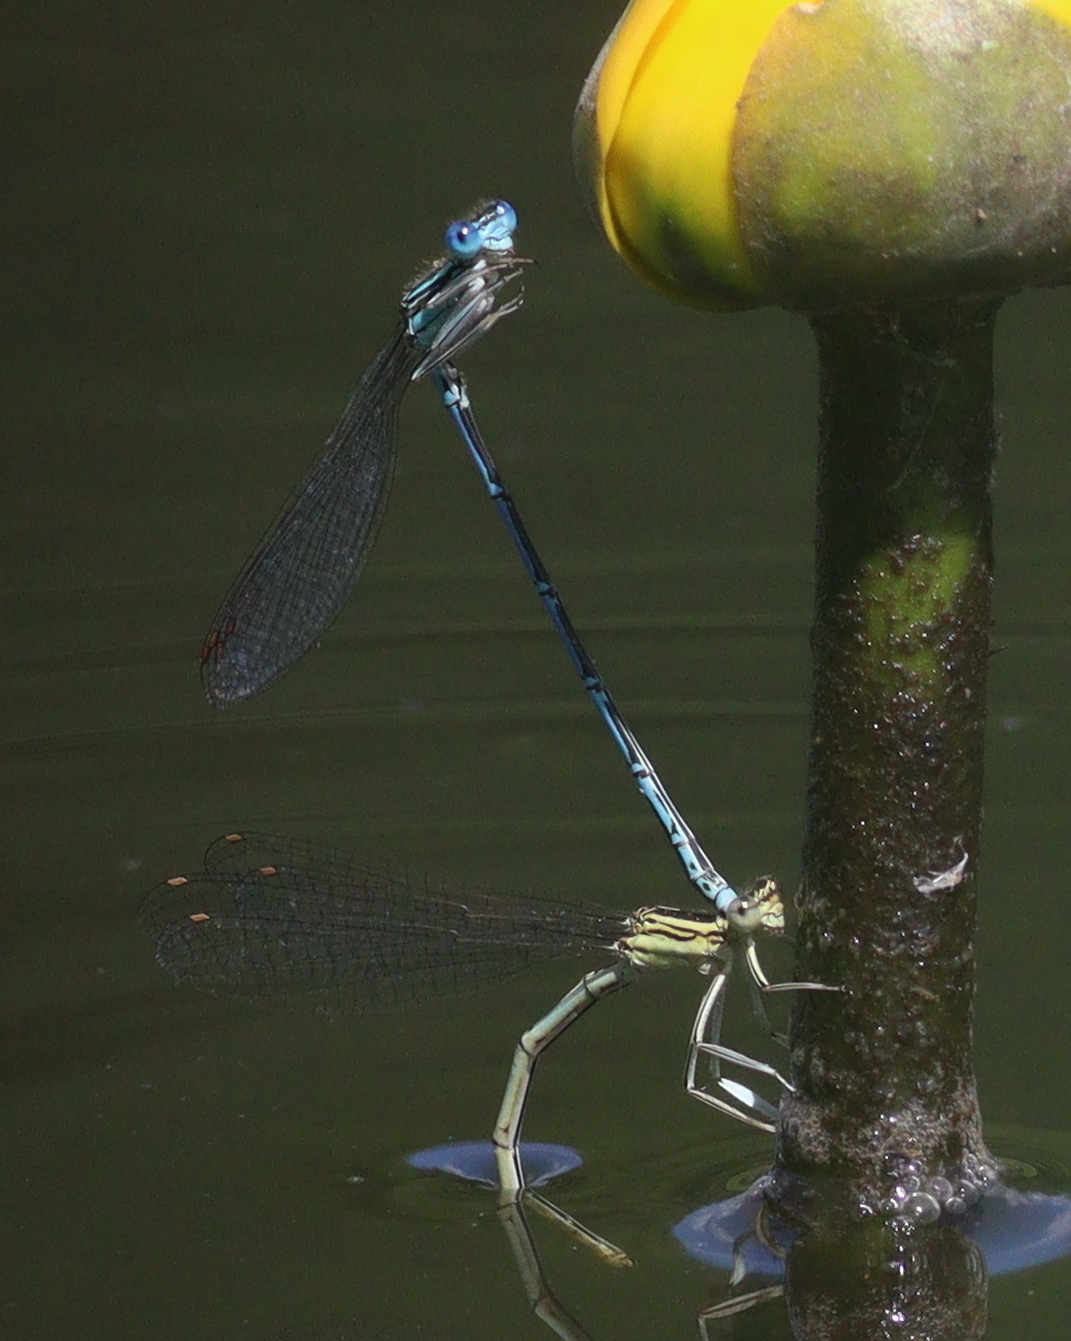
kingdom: Animalia
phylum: Arthropoda
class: Insecta
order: Odonata
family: Platycnemididae
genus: Platycnemis
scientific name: Platycnemis pennipes
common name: White-legged damselfly
